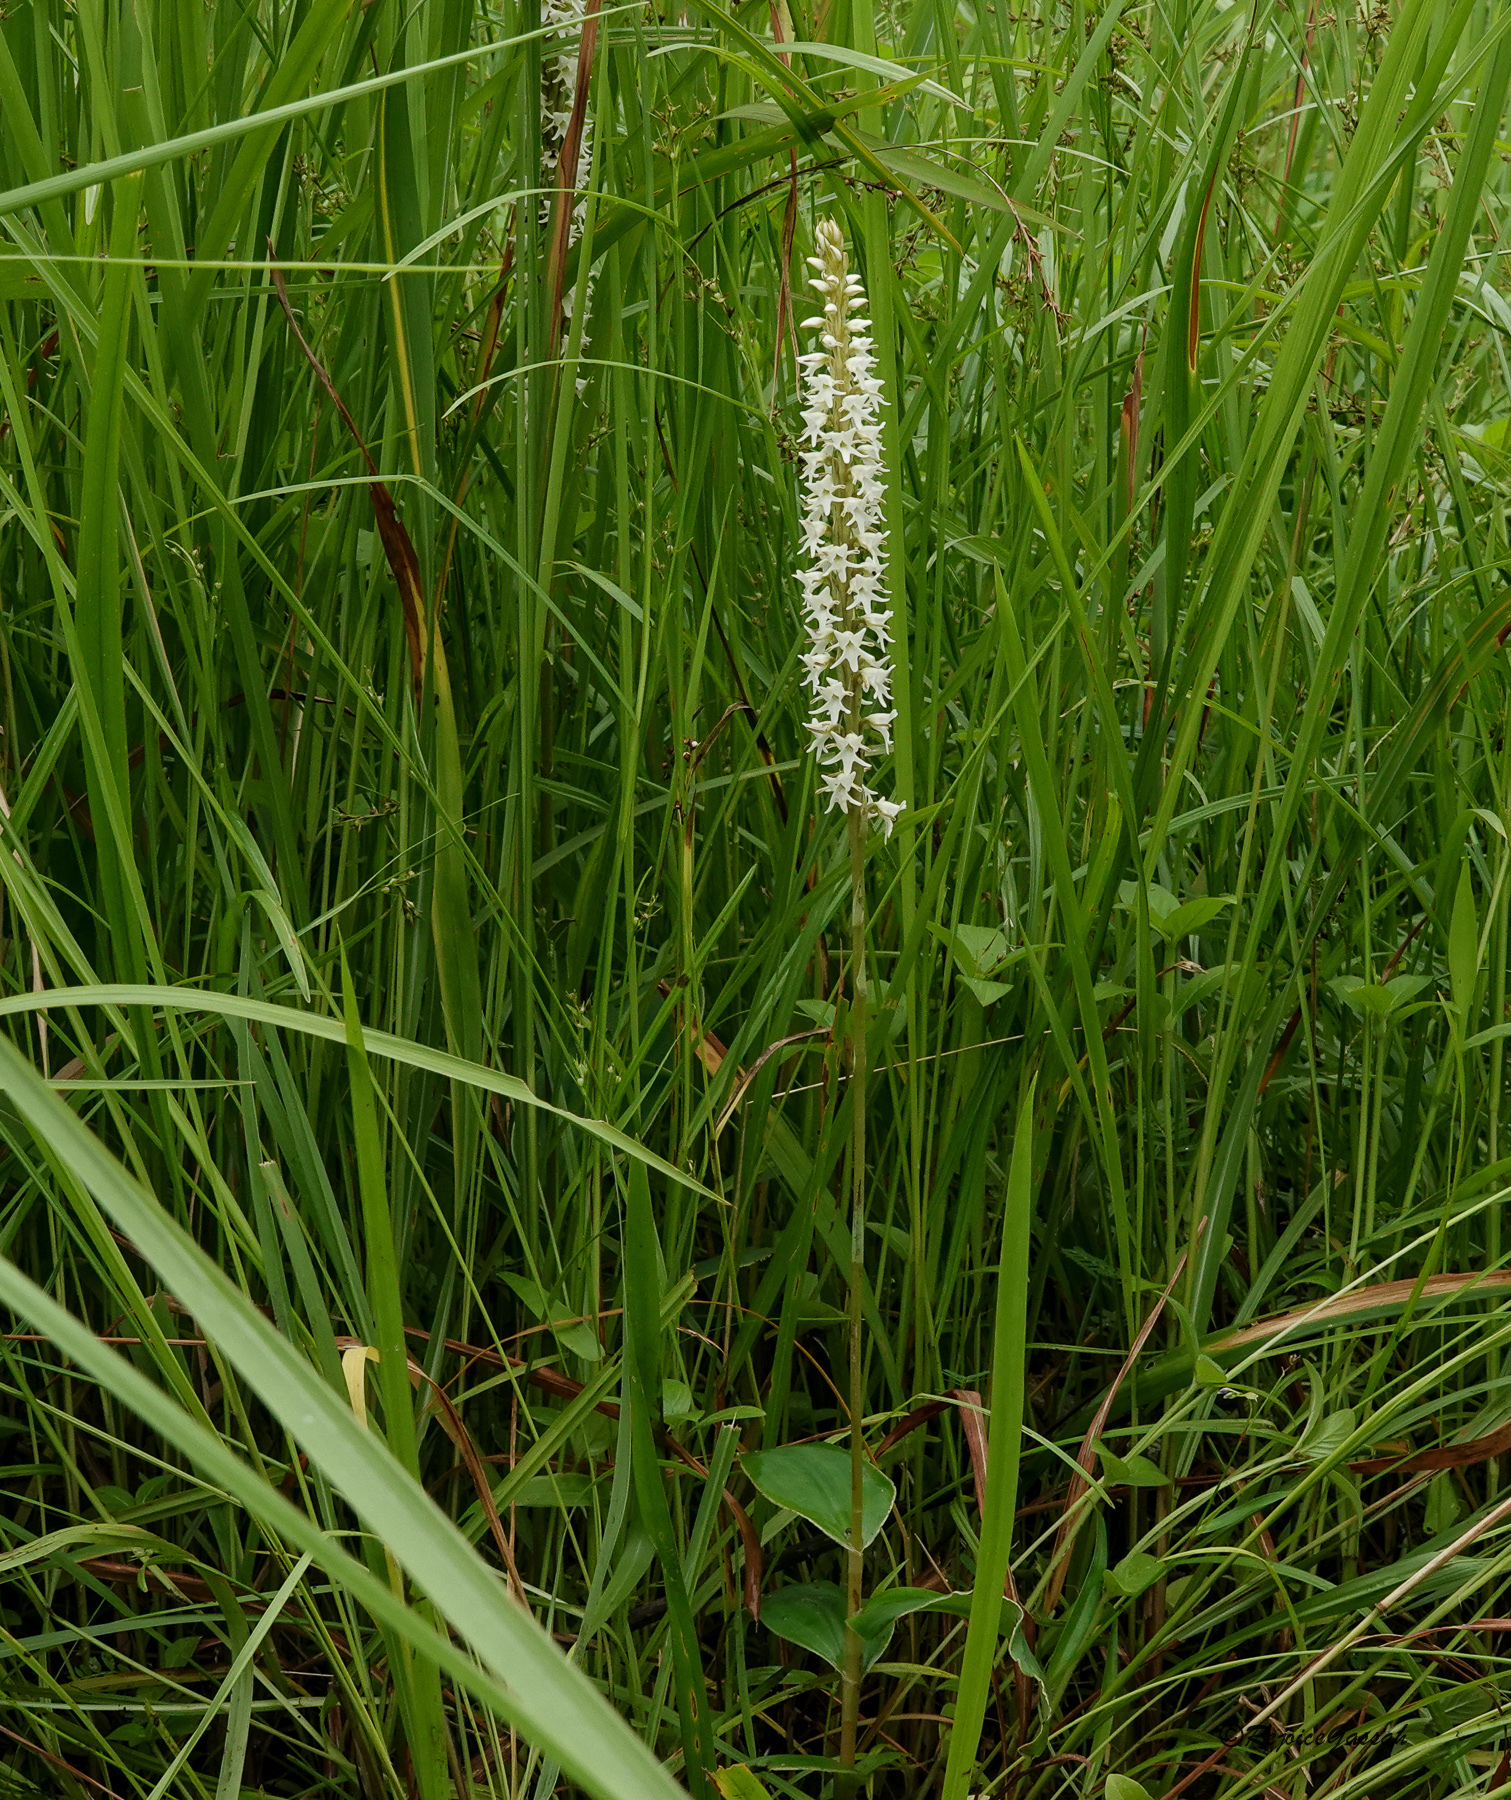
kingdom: Plantae
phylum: Tracheophyta
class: Liliopsida
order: Asparagales
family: Orchidaceae
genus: Peristylus
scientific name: Peristylus constrictus
